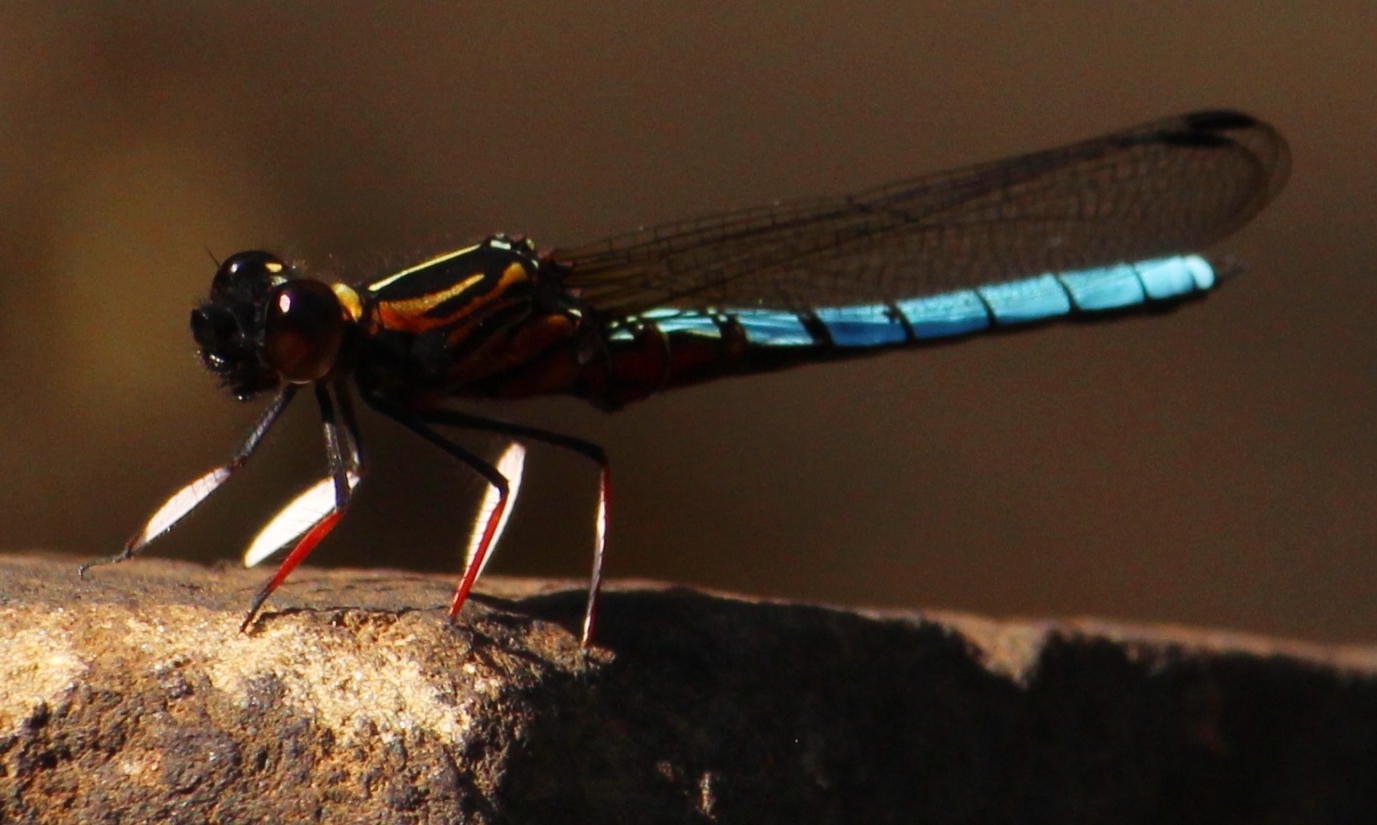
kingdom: Animalia
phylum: Arthropoda
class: Insecta
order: Odonata
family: Chlorocyphidae
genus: Platycypha
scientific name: Platycypha caligata
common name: Dancing jewel
